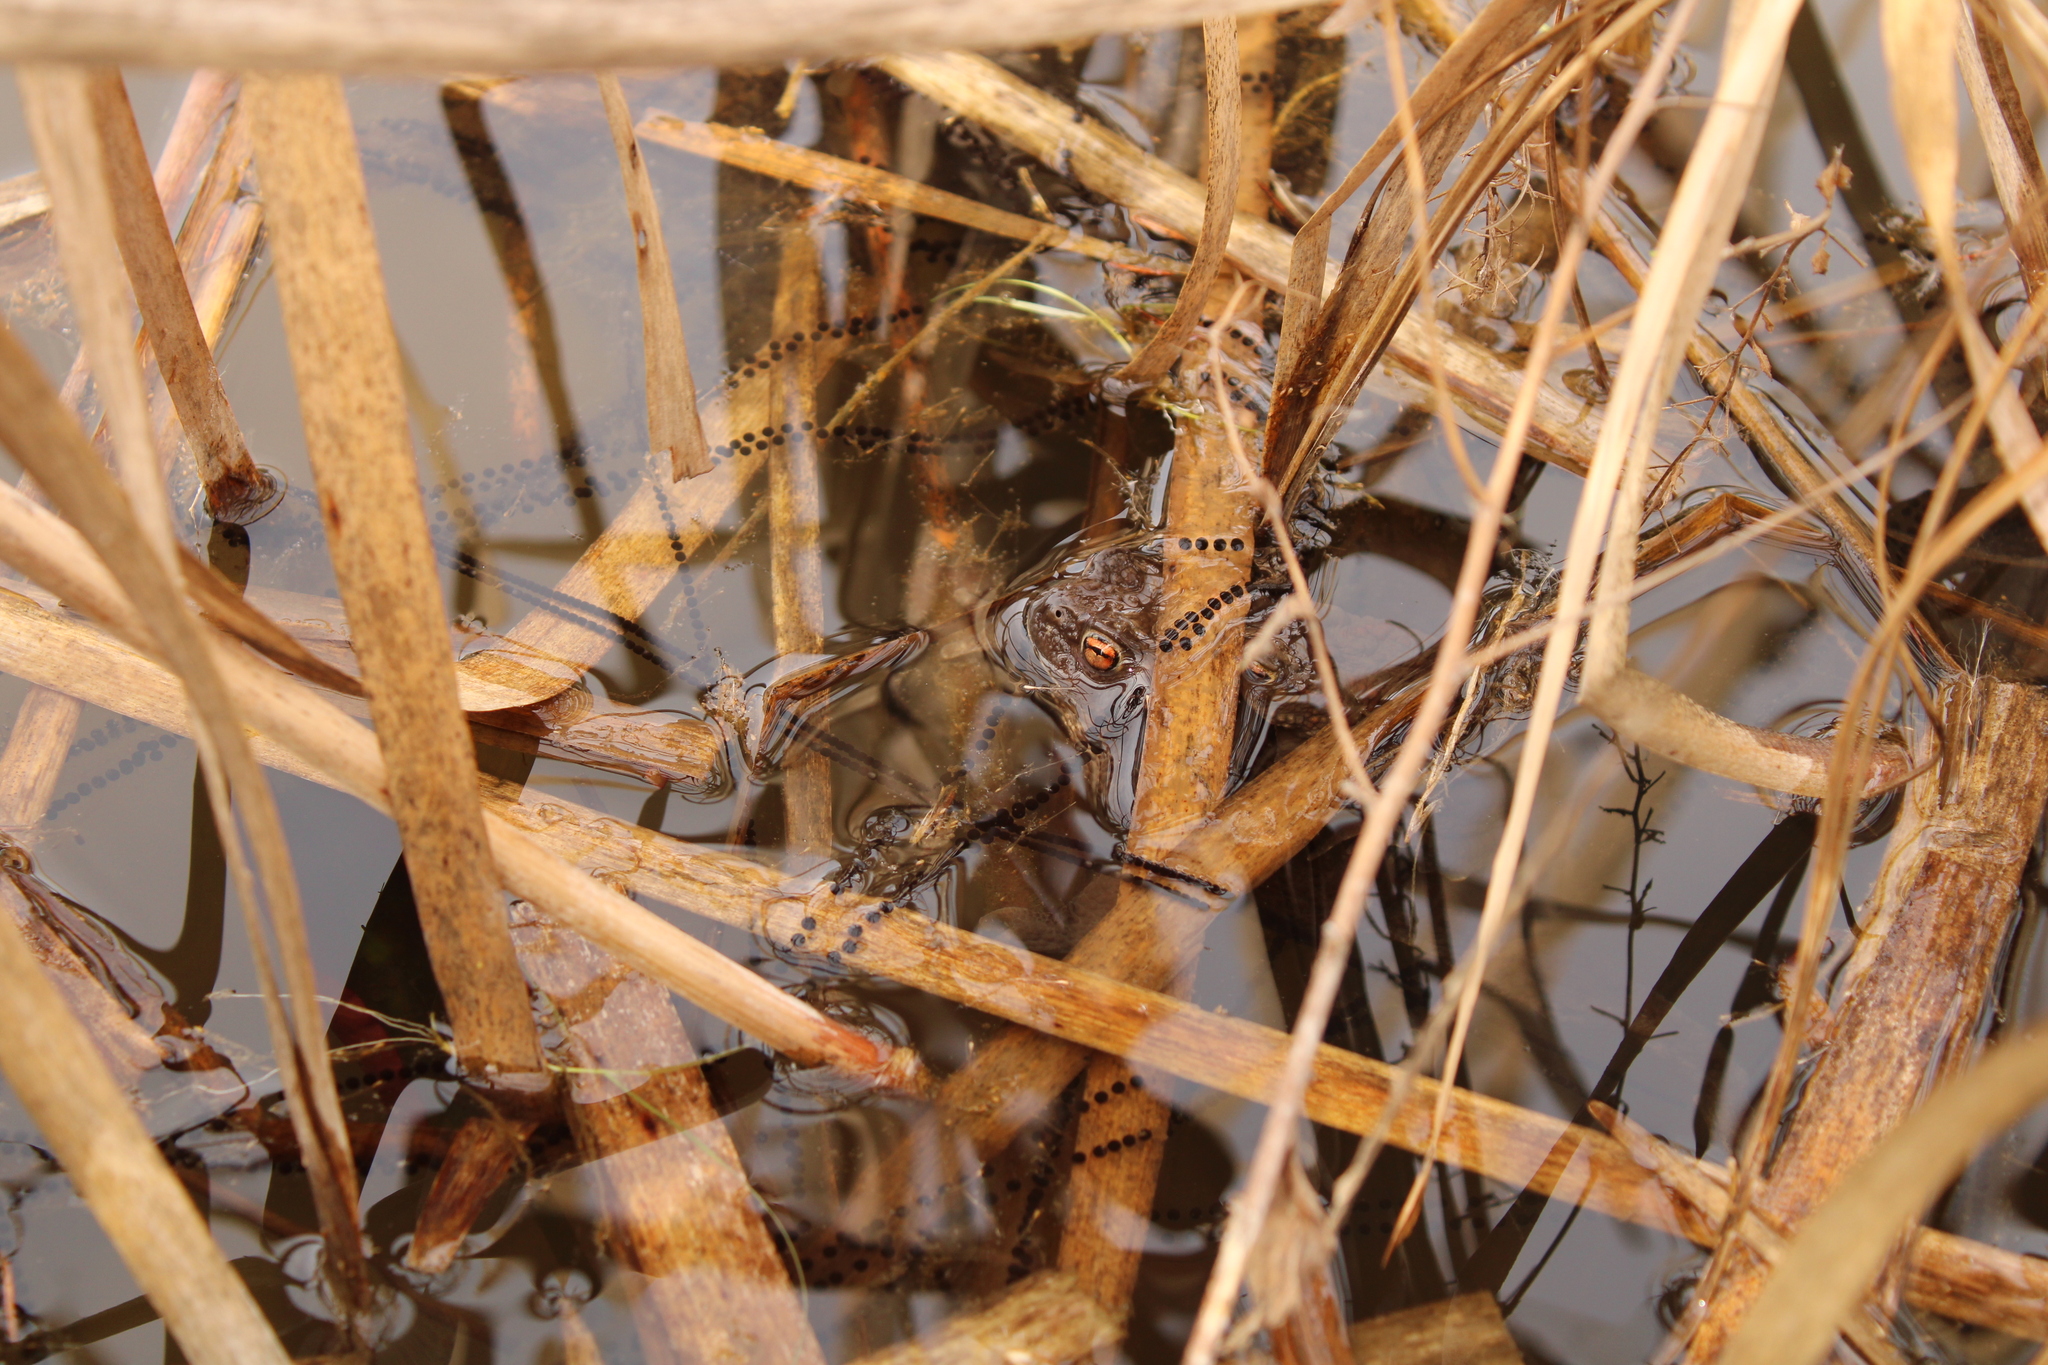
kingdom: Animalia
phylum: Chordata
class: Amphibia
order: Anura
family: Bufonidae
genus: Bufo
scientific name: Bufo bufo
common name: Common toad
